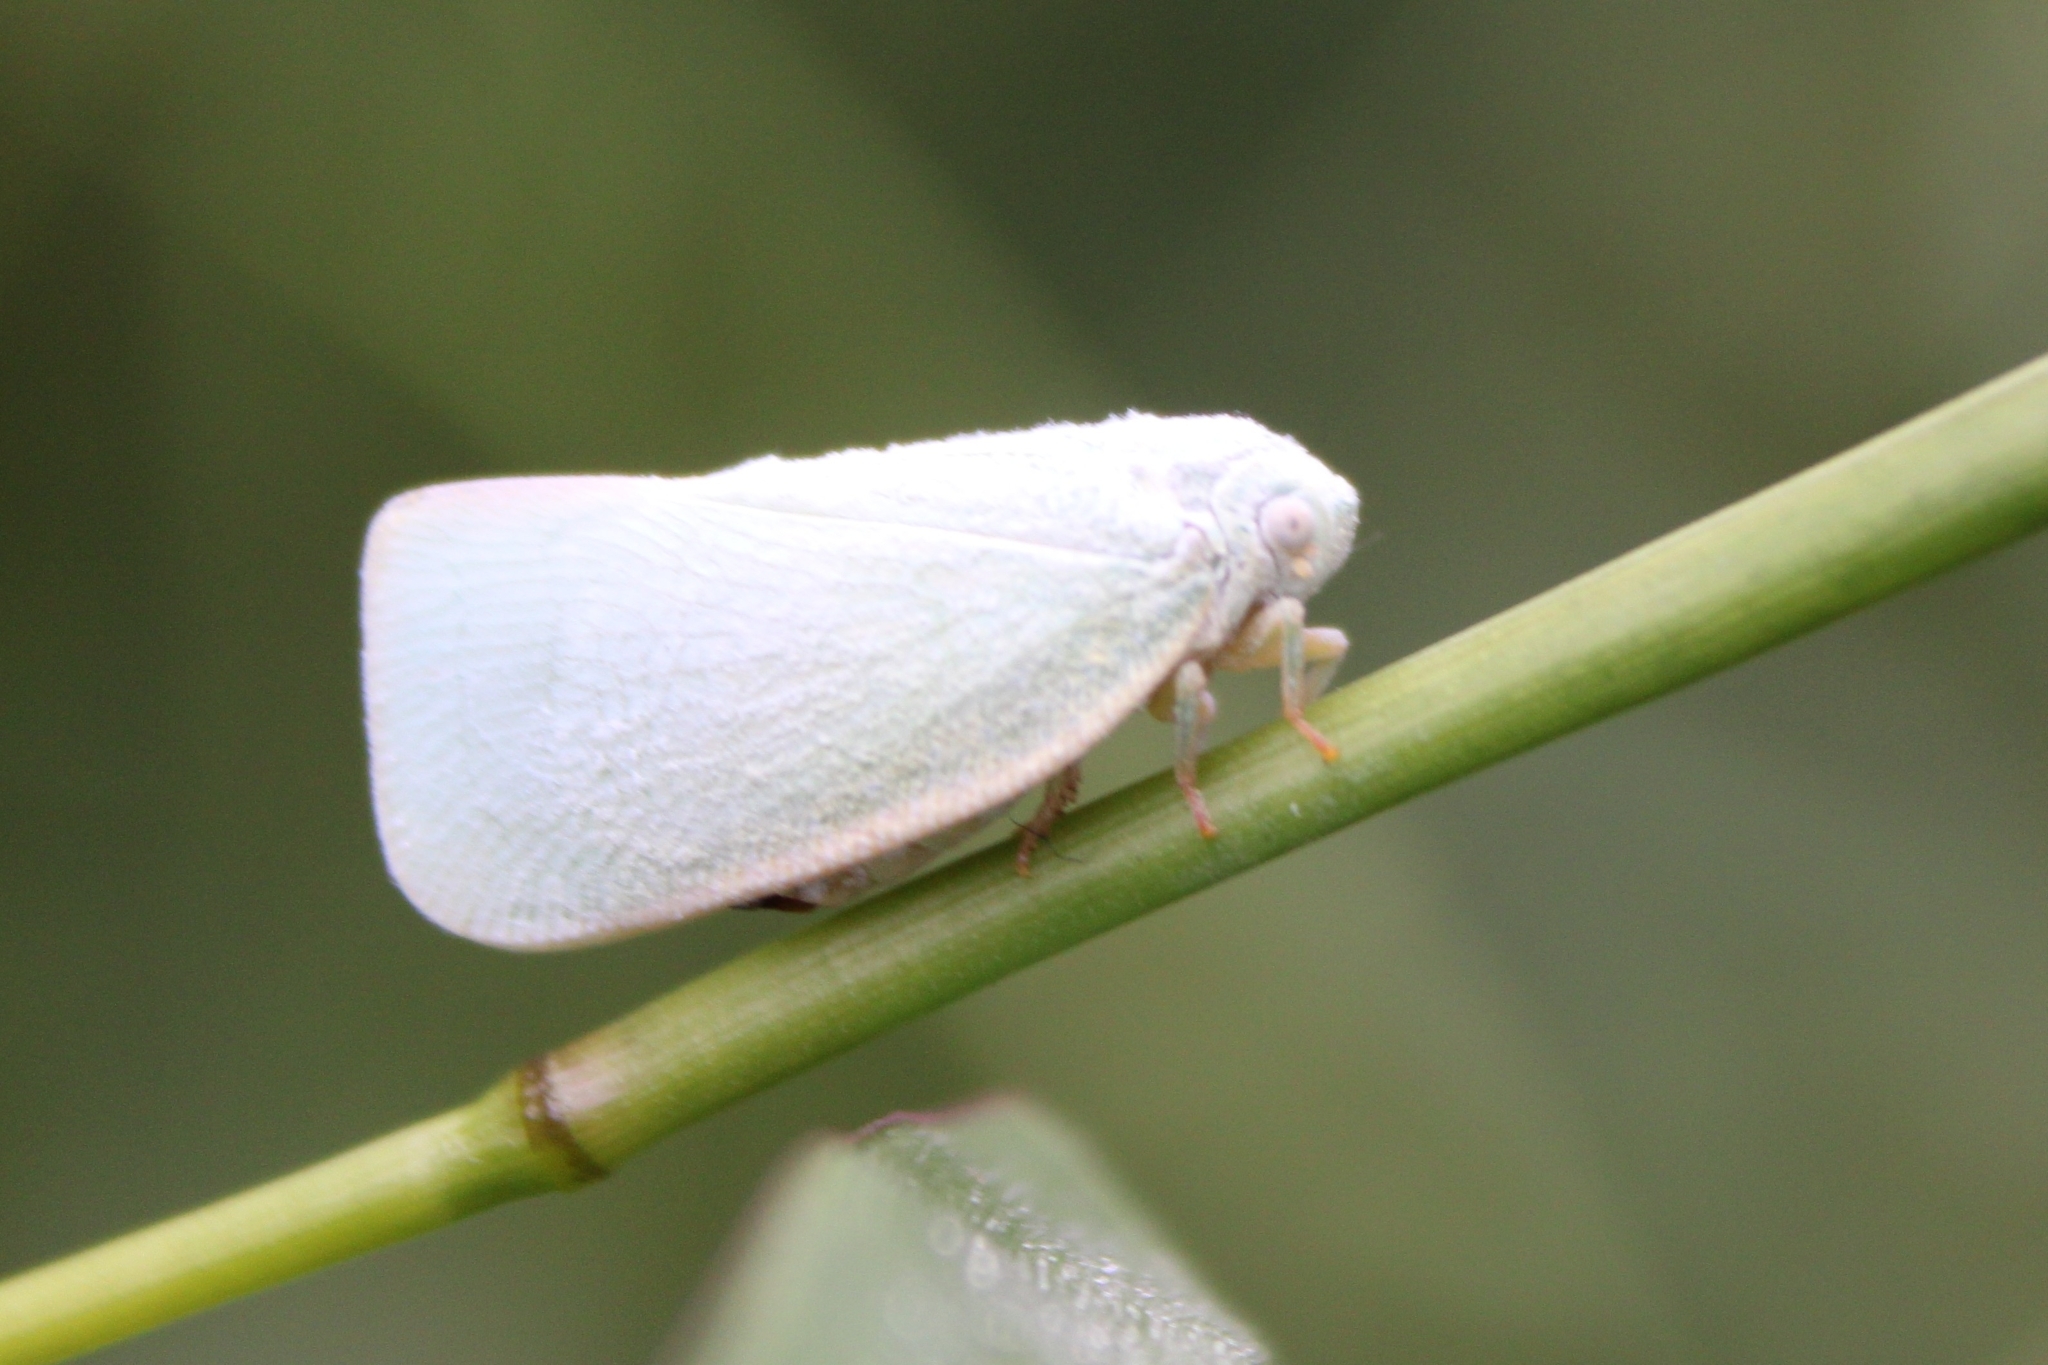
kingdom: Animalia
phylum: Arthropoda
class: Insecta
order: Hemiptera
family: Flatidae
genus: Flatormenis
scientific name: Flatormenis proxima
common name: Northern flatid planthopper
